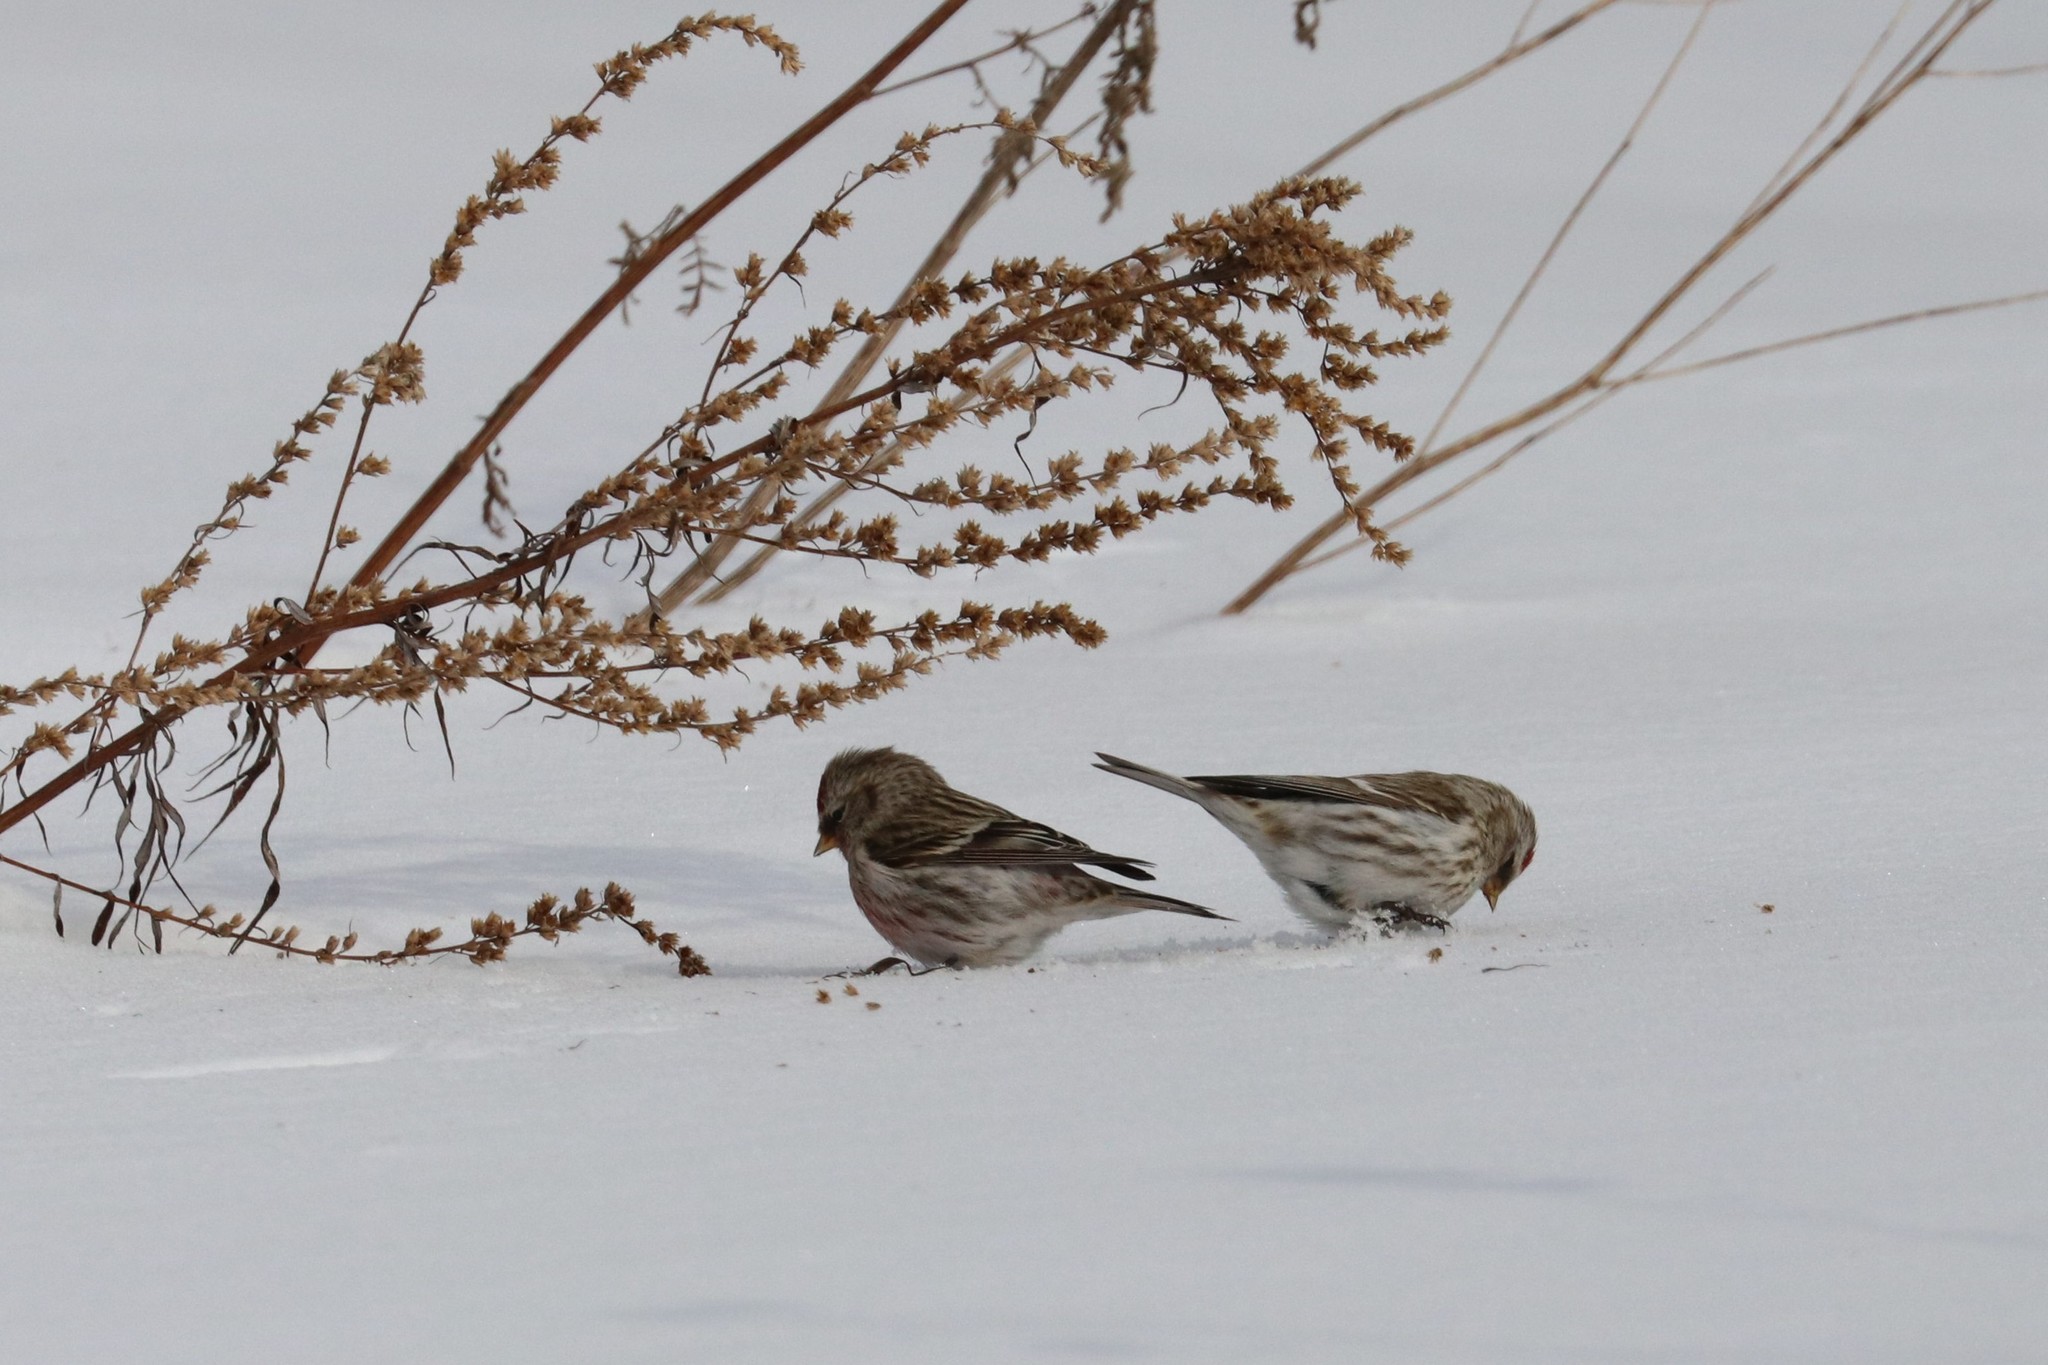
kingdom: Animalia
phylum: Chordata
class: Aves
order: Passeriformes
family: Fringillidae
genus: Acanthis
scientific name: Acanthis flammea
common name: Common redpoll
